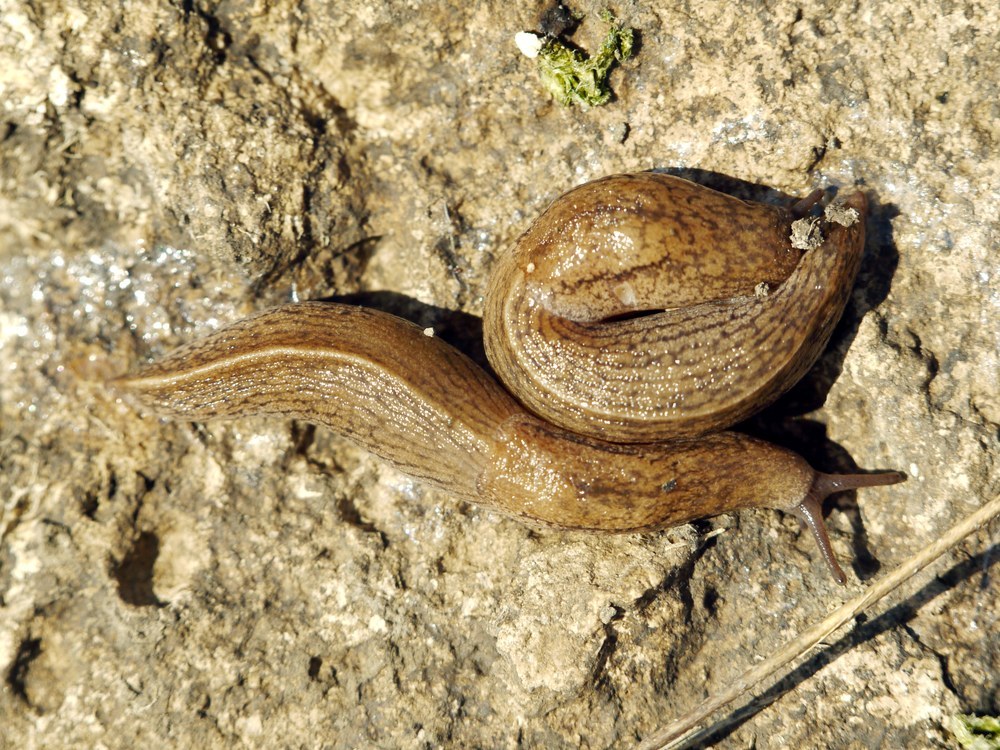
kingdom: Animalia
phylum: Mollusca
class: Gastropoda
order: Stylommatophora
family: Milacidae
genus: Tandonia
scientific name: Tandonia kusceri
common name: Keeled slug
